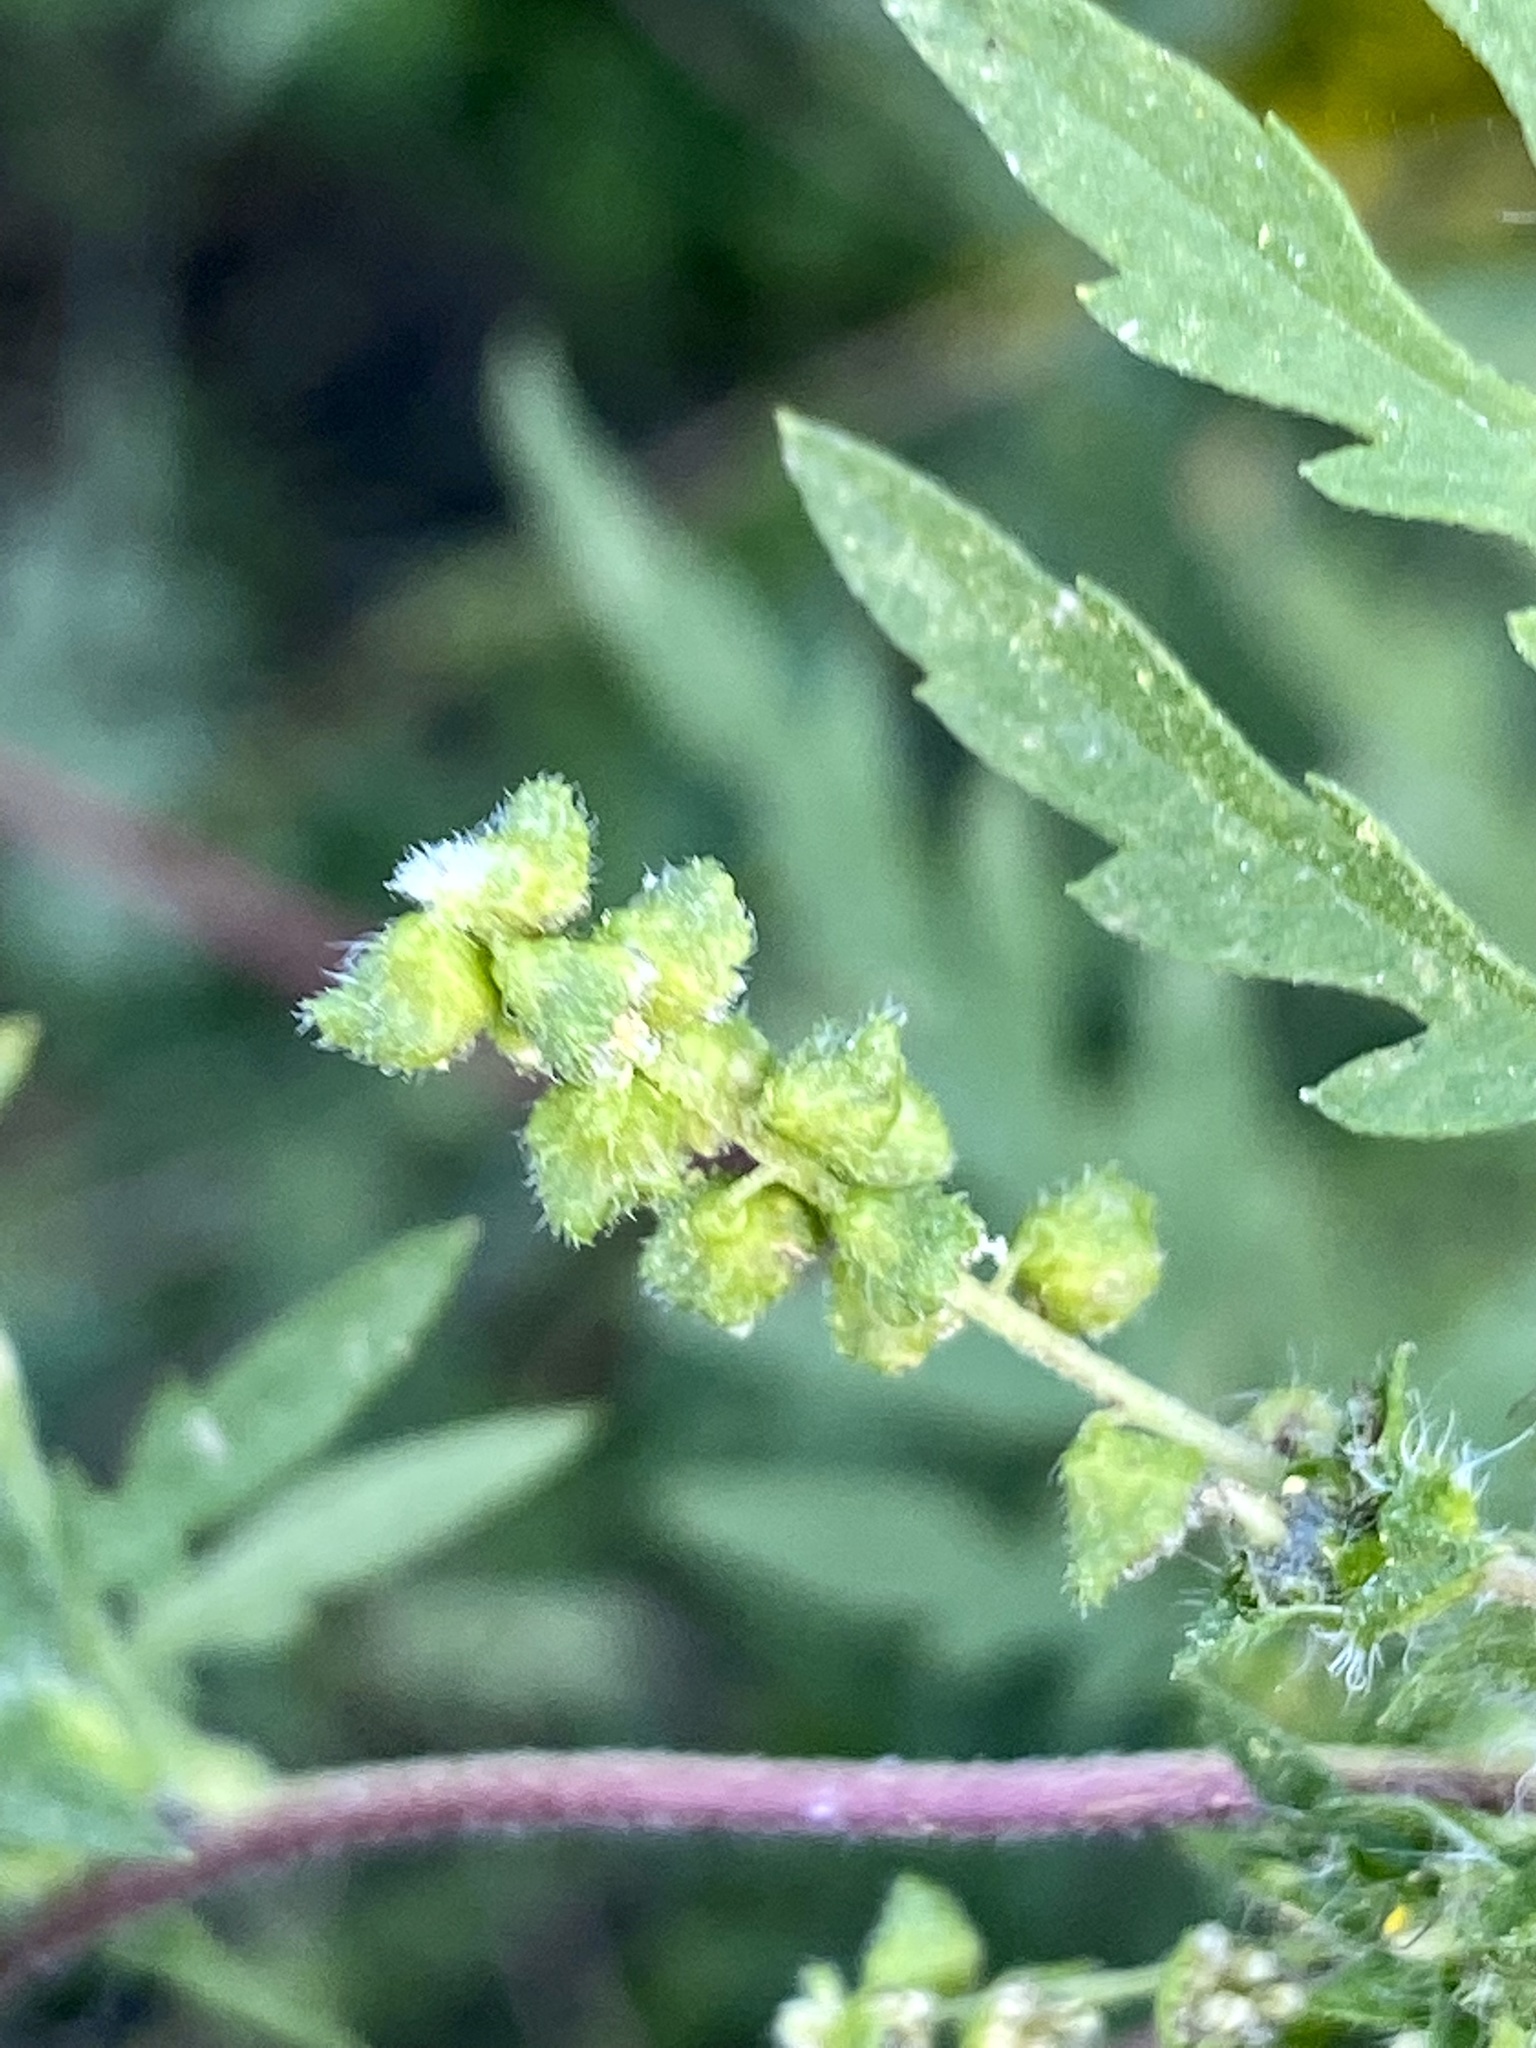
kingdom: Plantae
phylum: Tracheophyta
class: Magnoliopsida
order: Asterales
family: Asteraceae
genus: Ambrosia
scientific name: Ambrosia artemisiifolia
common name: Annual ragweed
